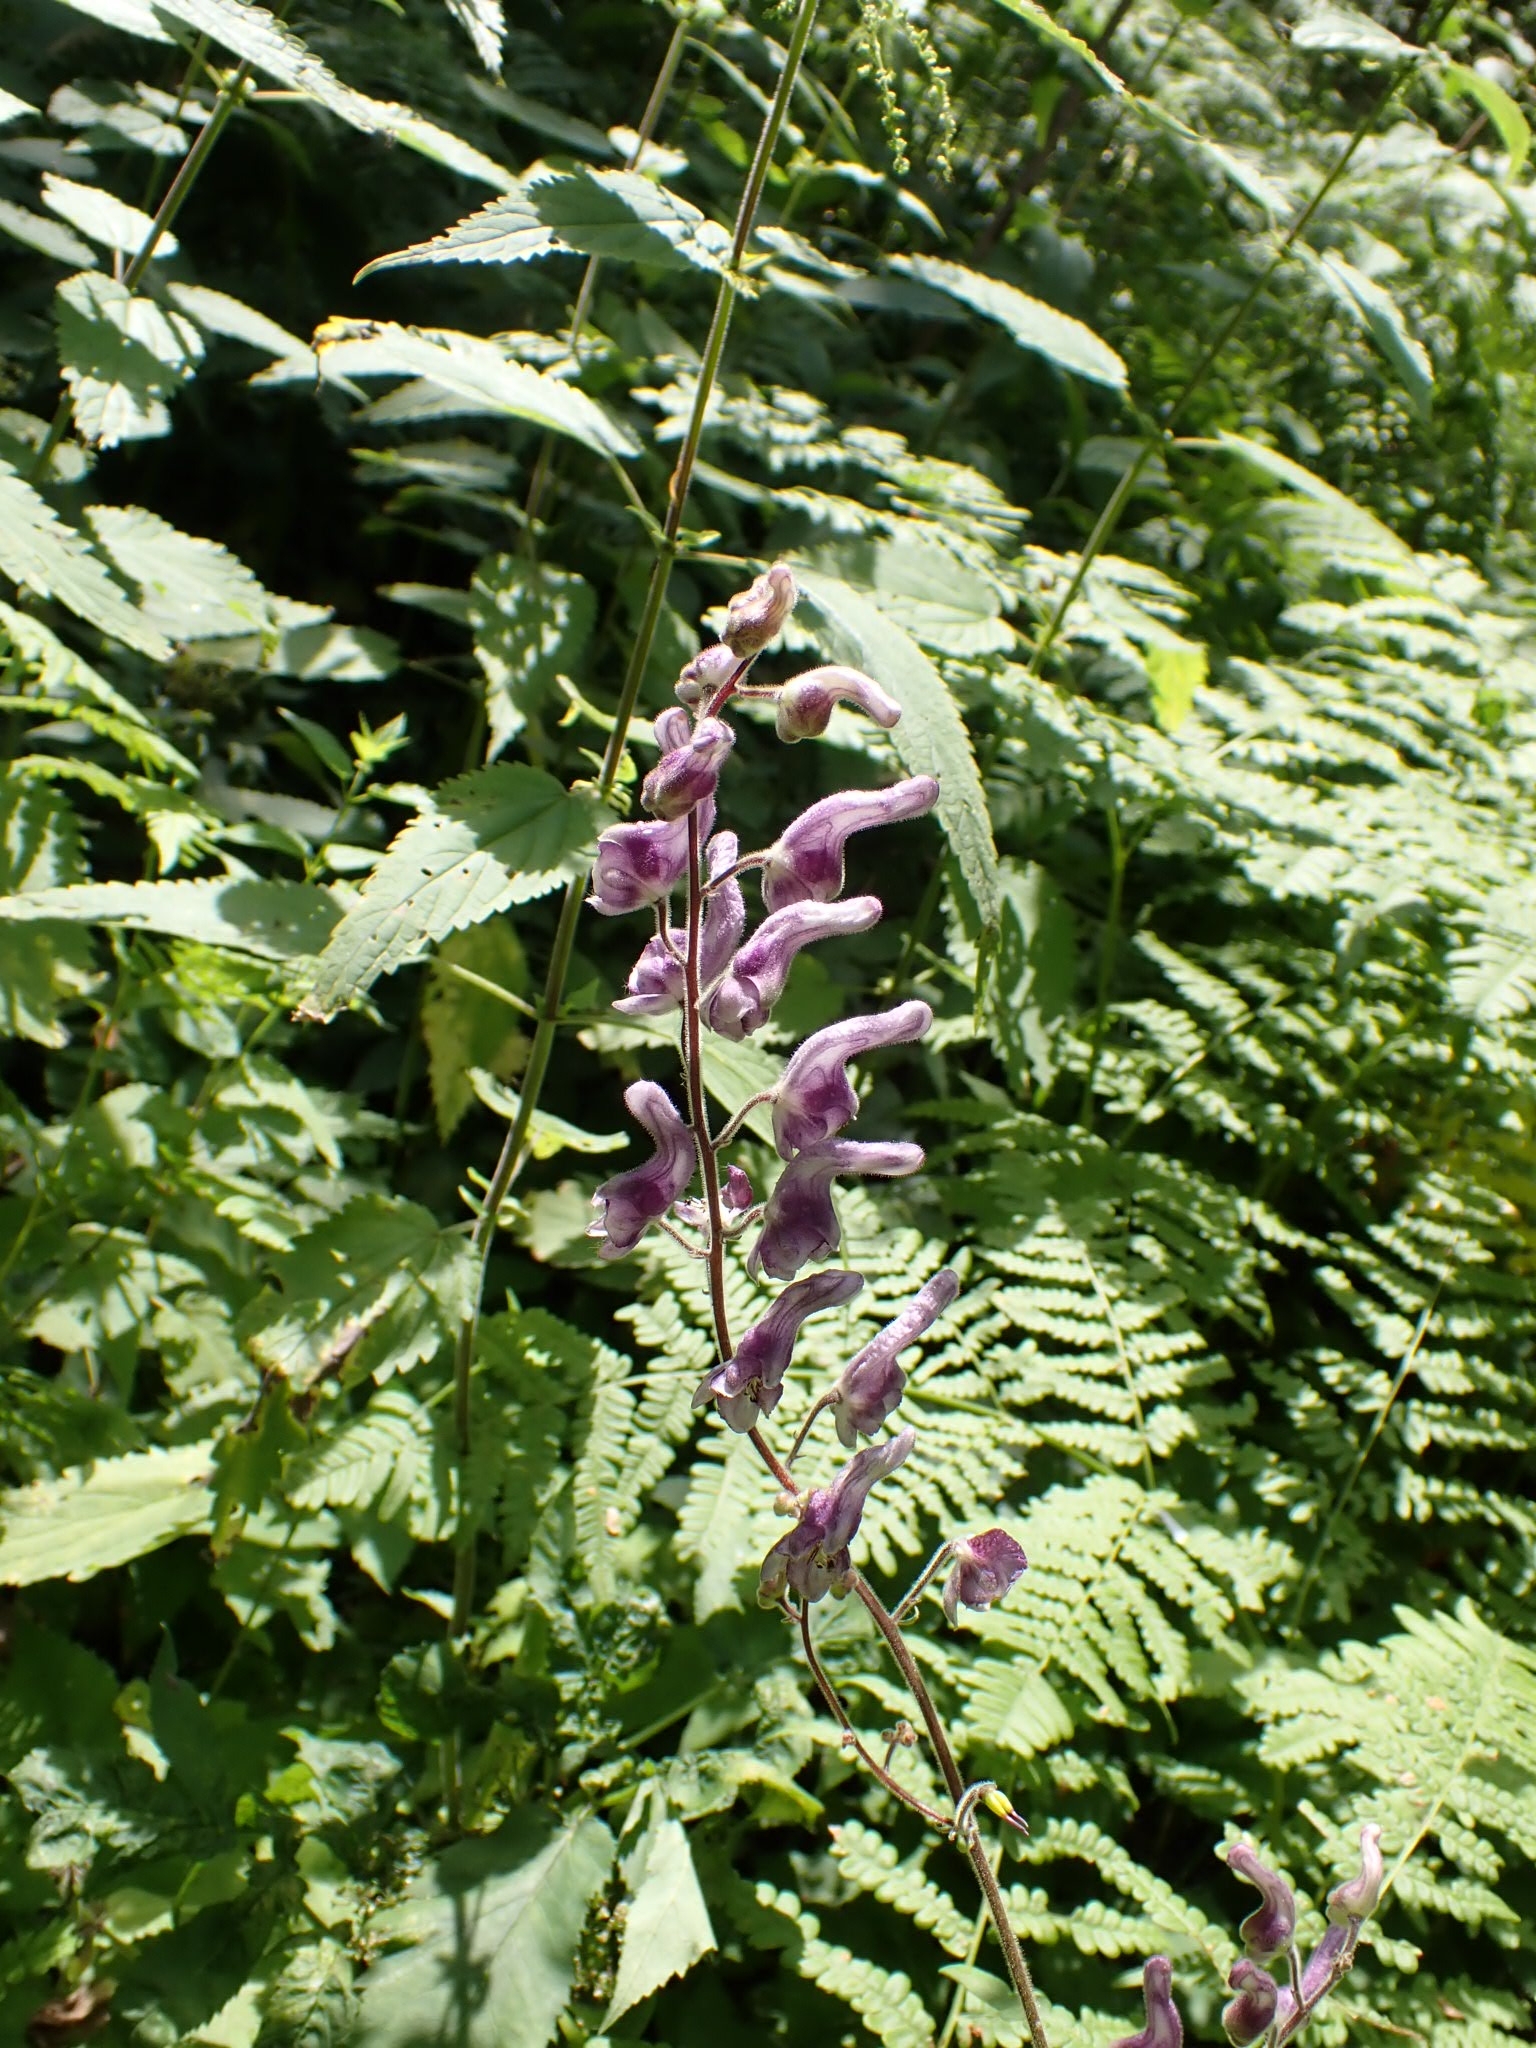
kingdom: Plantae
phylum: Tracheophyta
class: Magnoliopsida
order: Ranunculales
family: Ranunculaceae
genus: Aconitum
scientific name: Aconitum septentrionale
